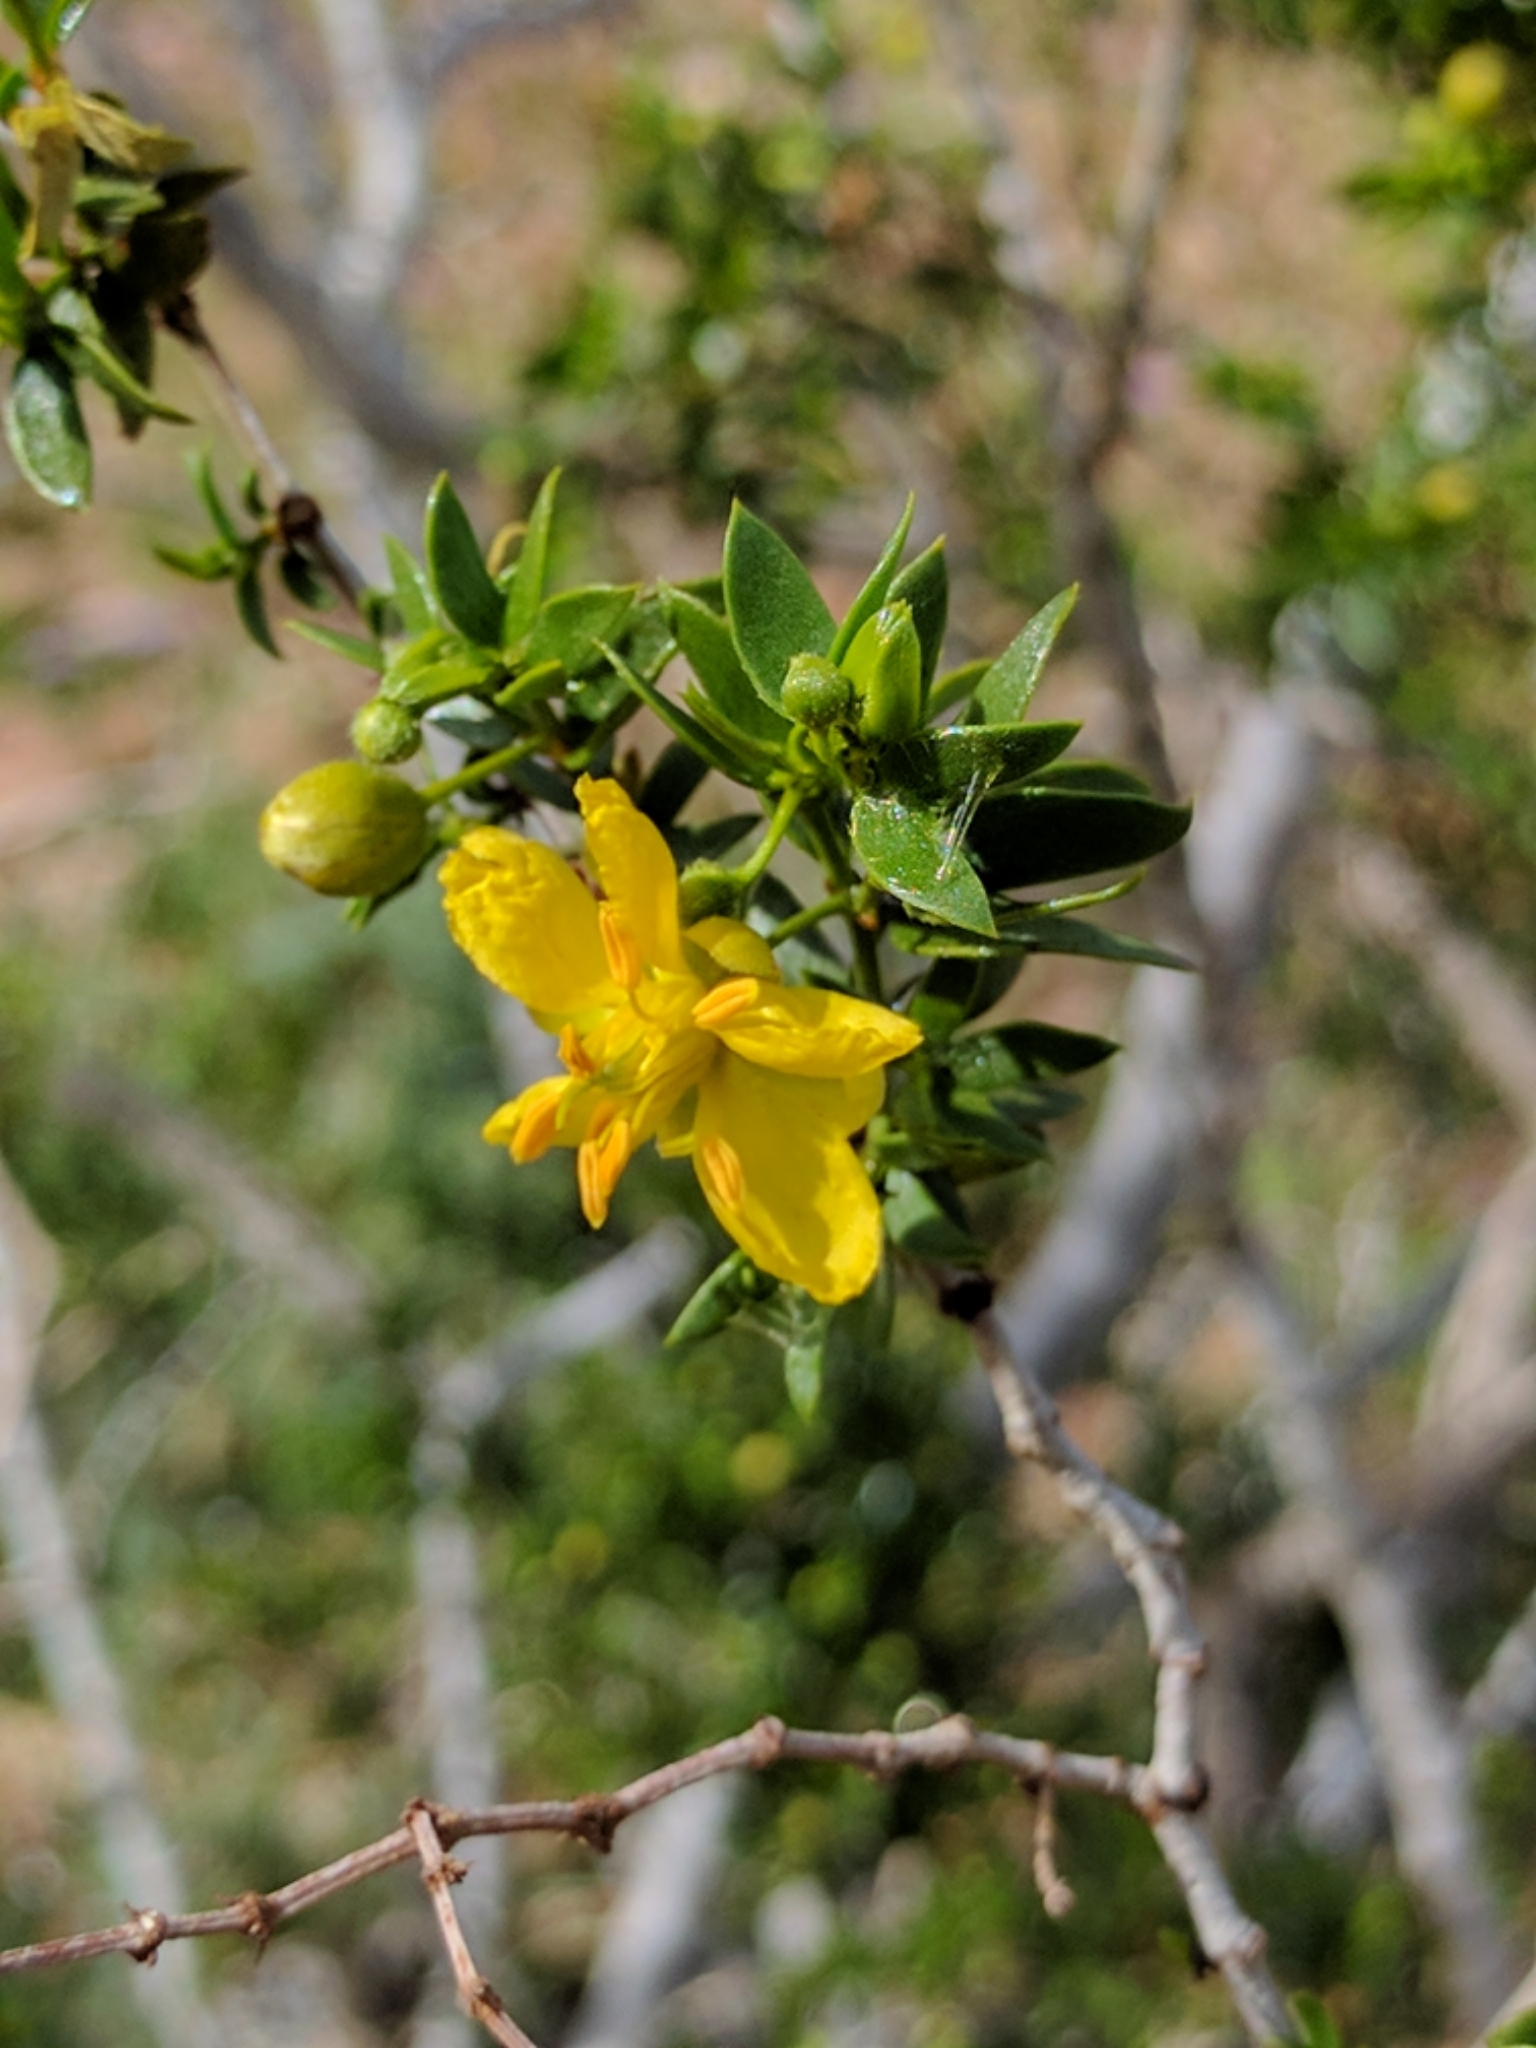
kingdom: Plantae
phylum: Tracheophyta
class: Magnoliopsida
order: Zygophyllales
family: Zygophyllaceae
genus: Larrea
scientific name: Larrea tridentata
